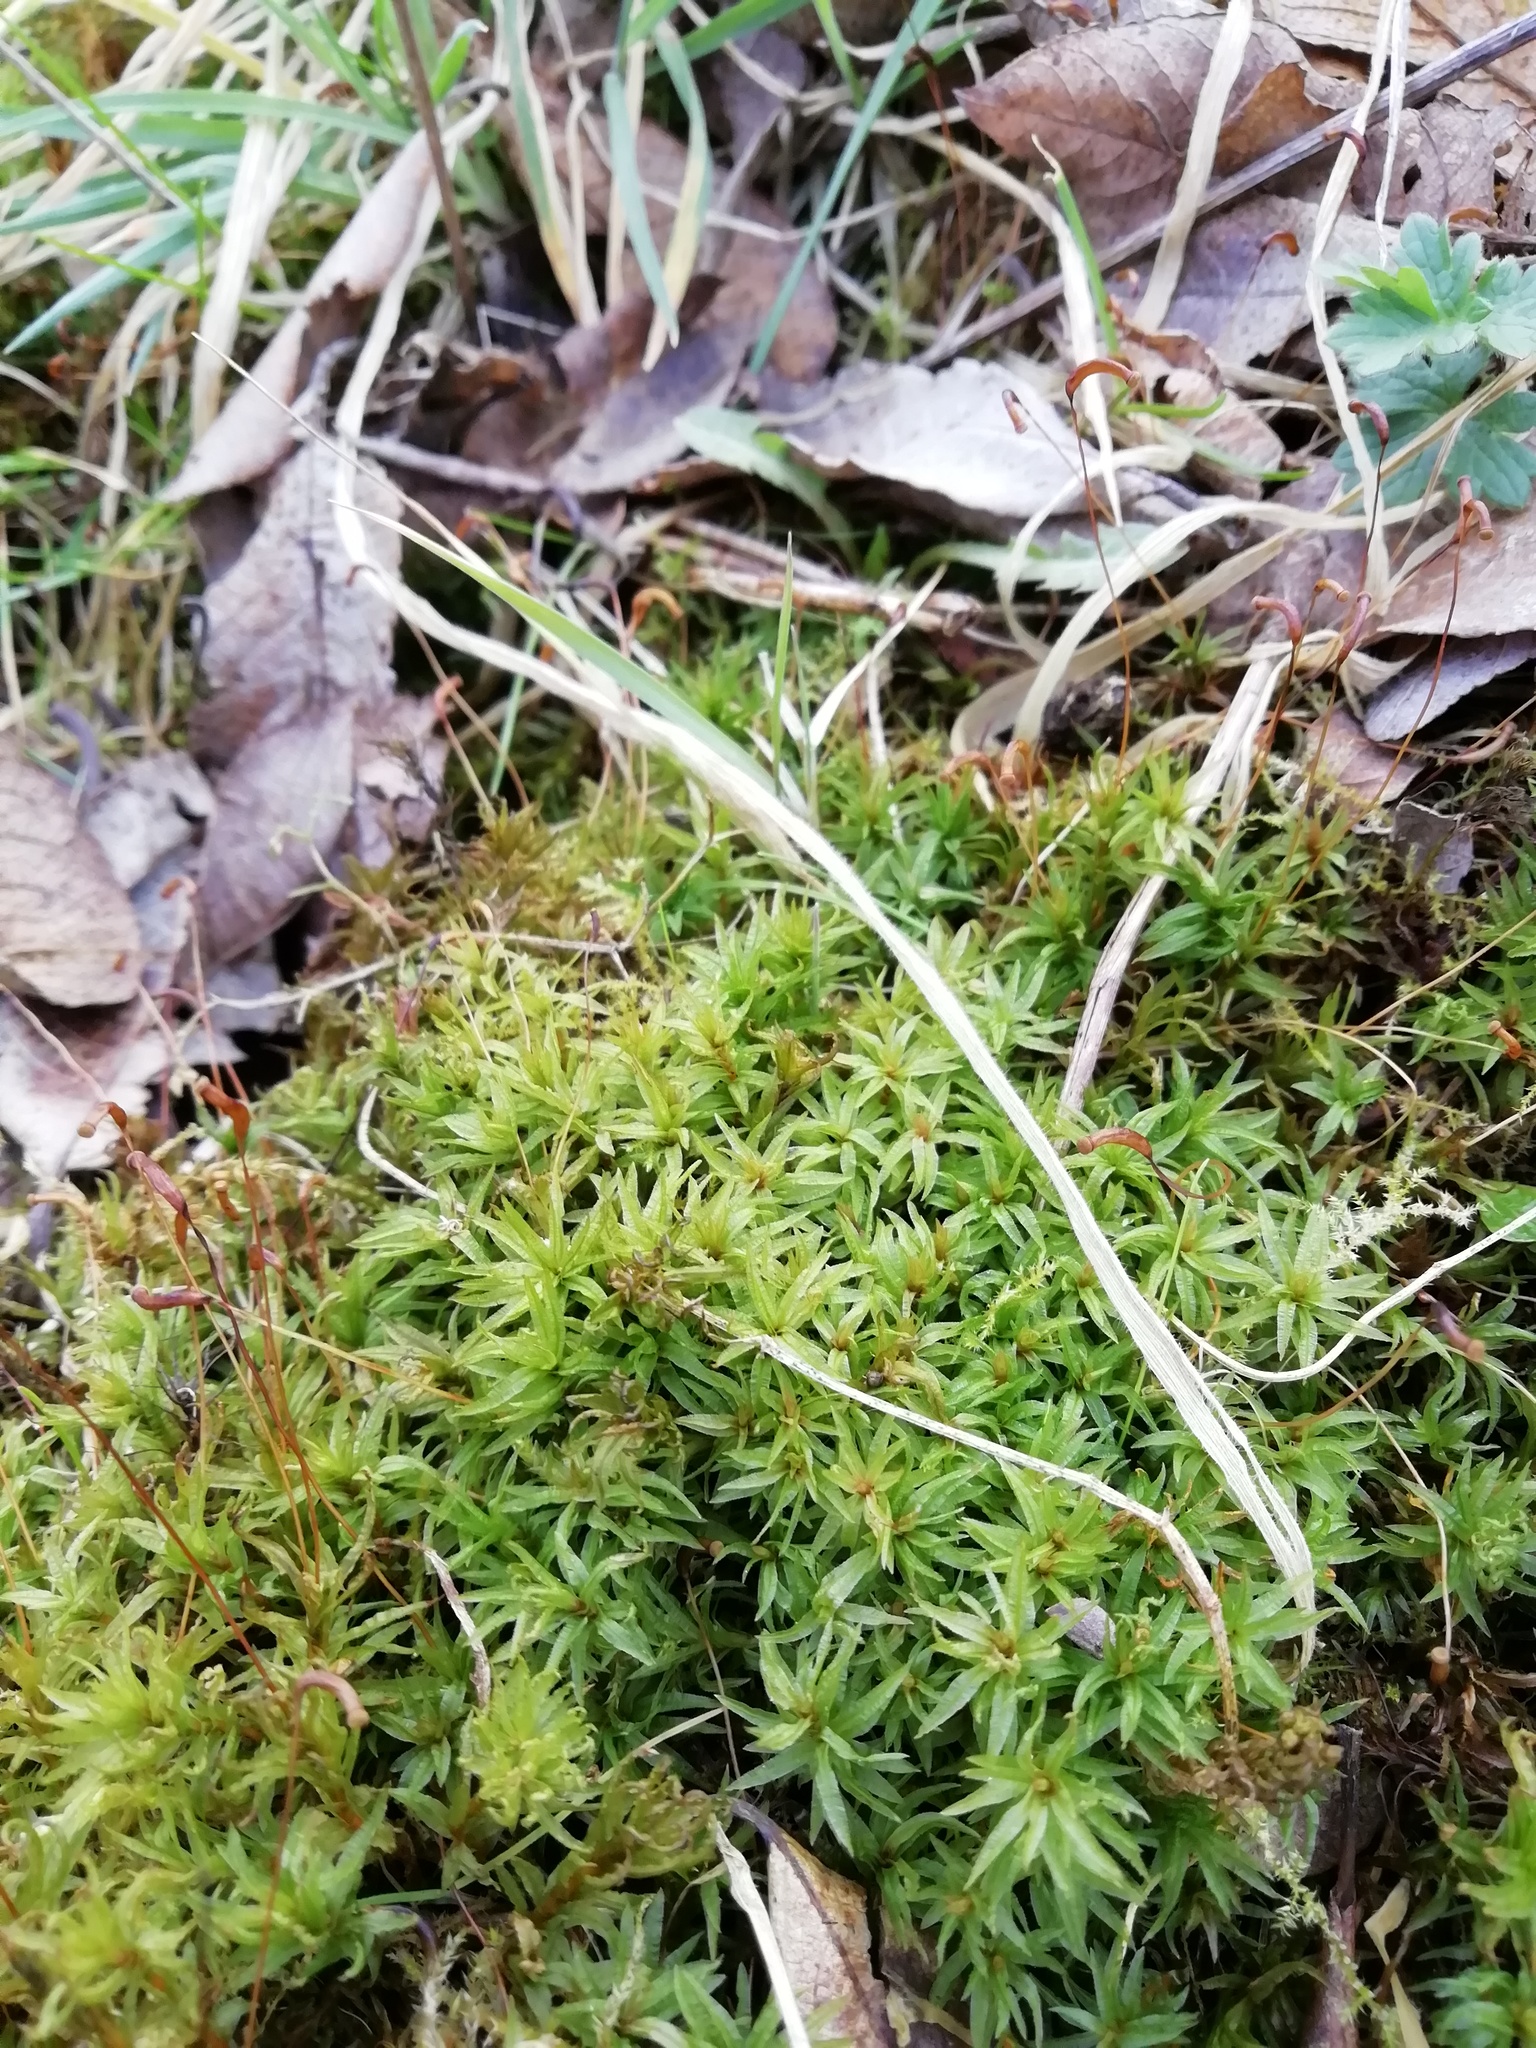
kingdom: Plantae
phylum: Bryophyta
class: Polytrichopsida
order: Polytrichales
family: Polytrichaceae
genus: Atrichum
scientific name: Atrichum undulatum
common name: Common smoothcap
